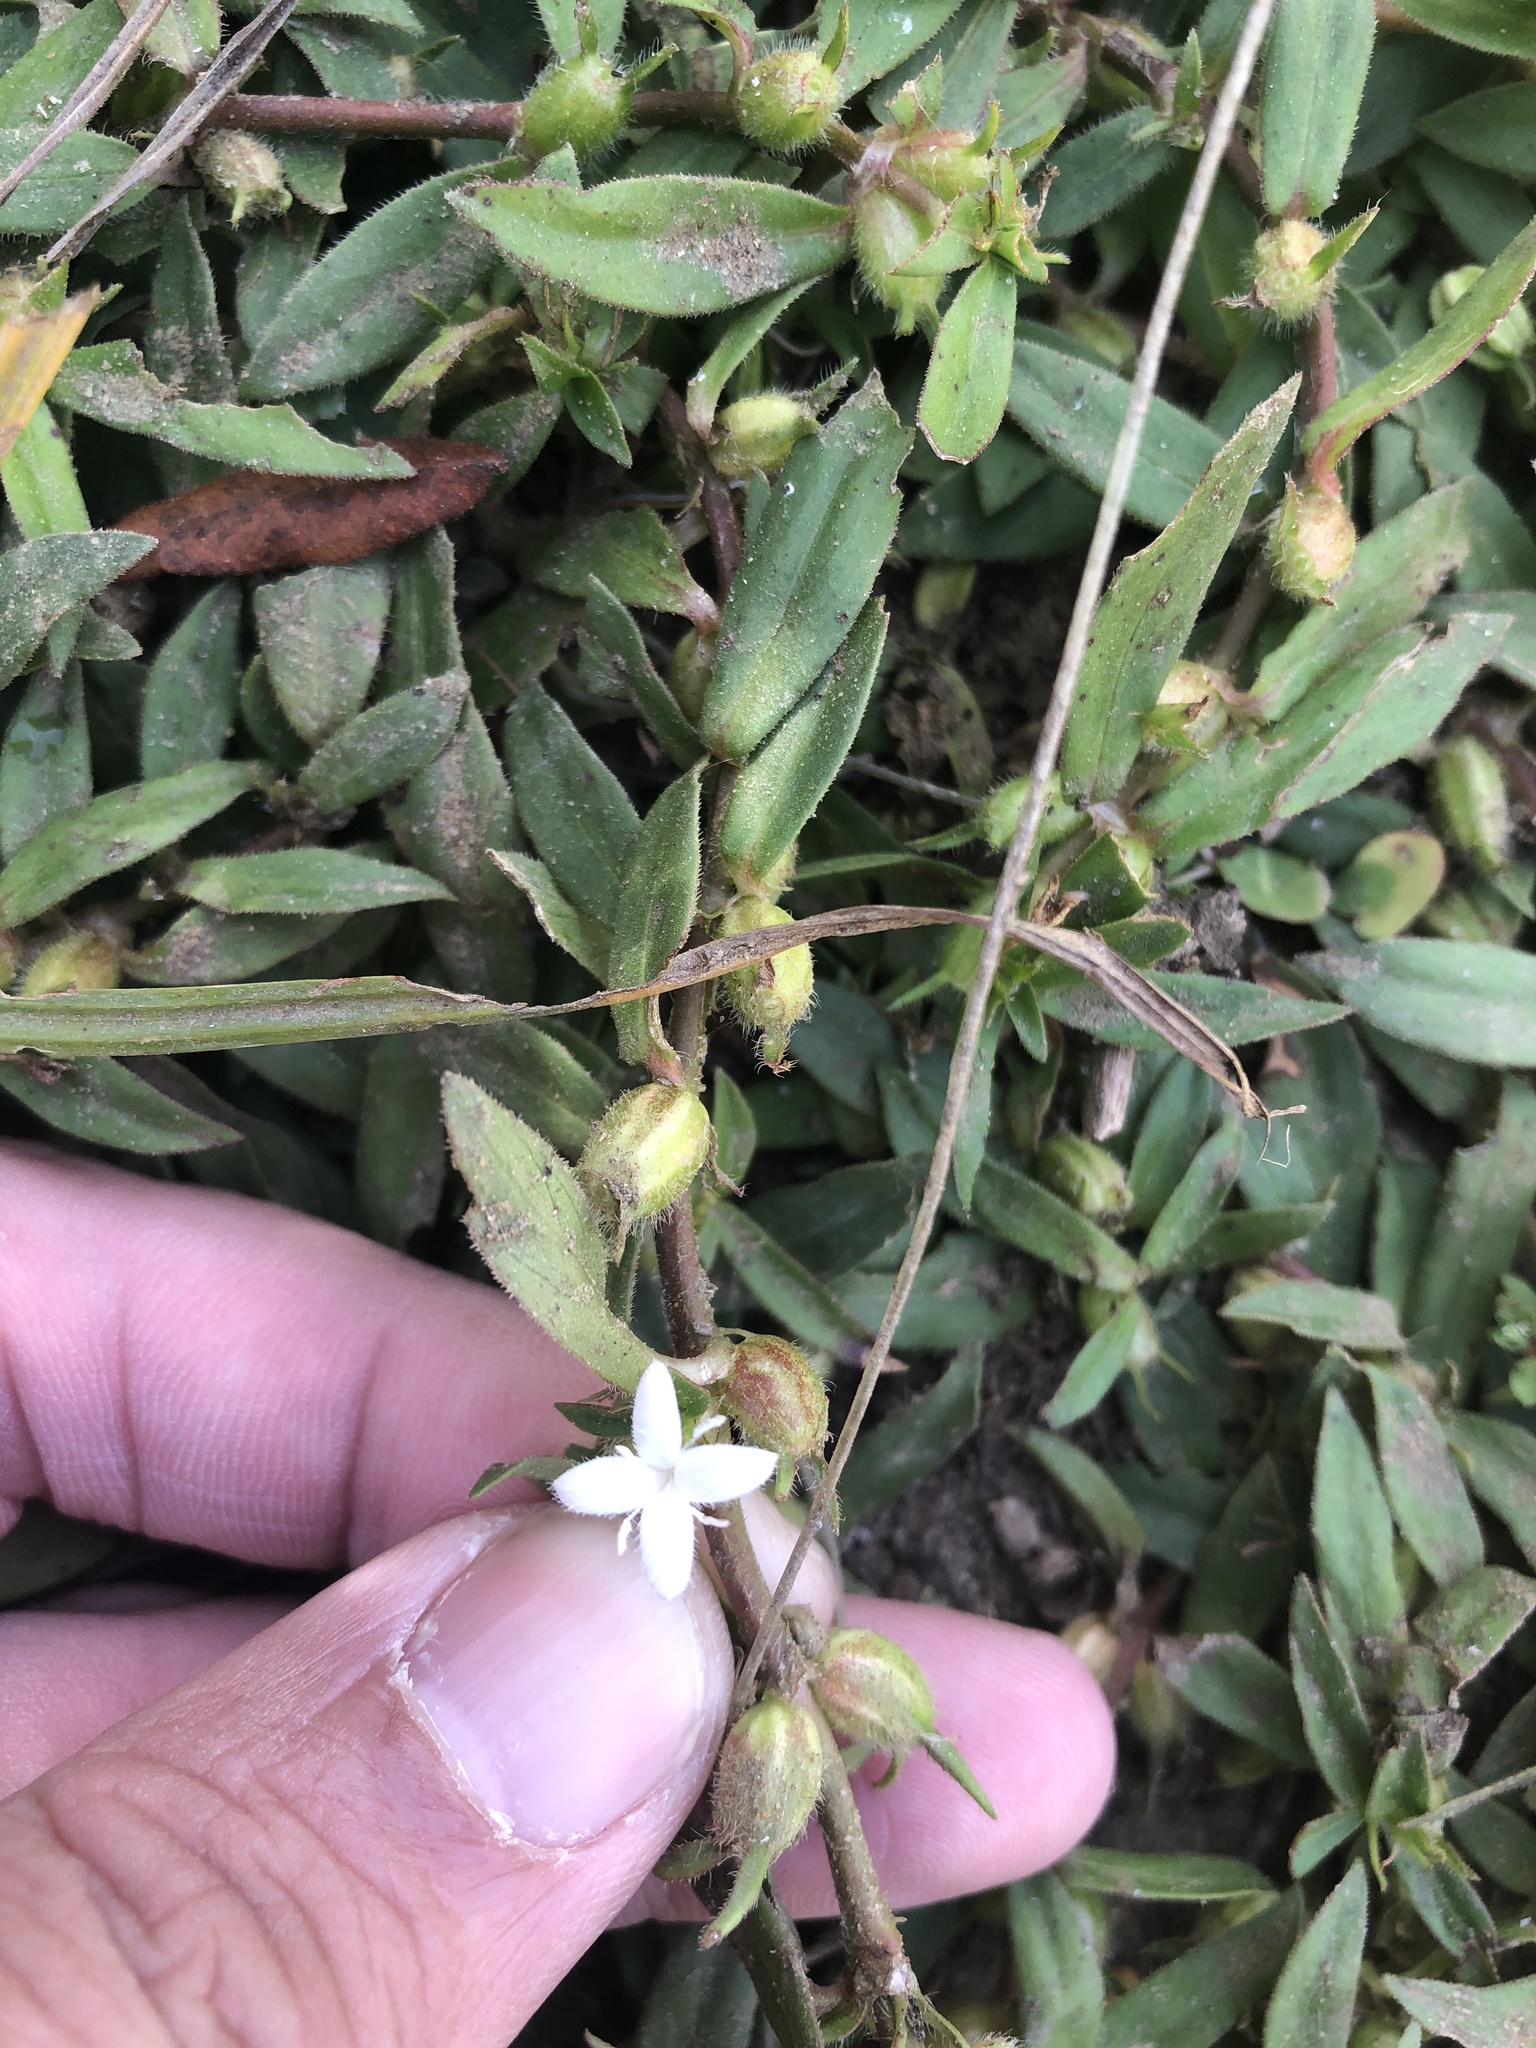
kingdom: Plantae
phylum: Tracheophyta
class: Magnoliopsida
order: Gentianales
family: Rubiaceae
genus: Diodia
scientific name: Diodia virginiana
